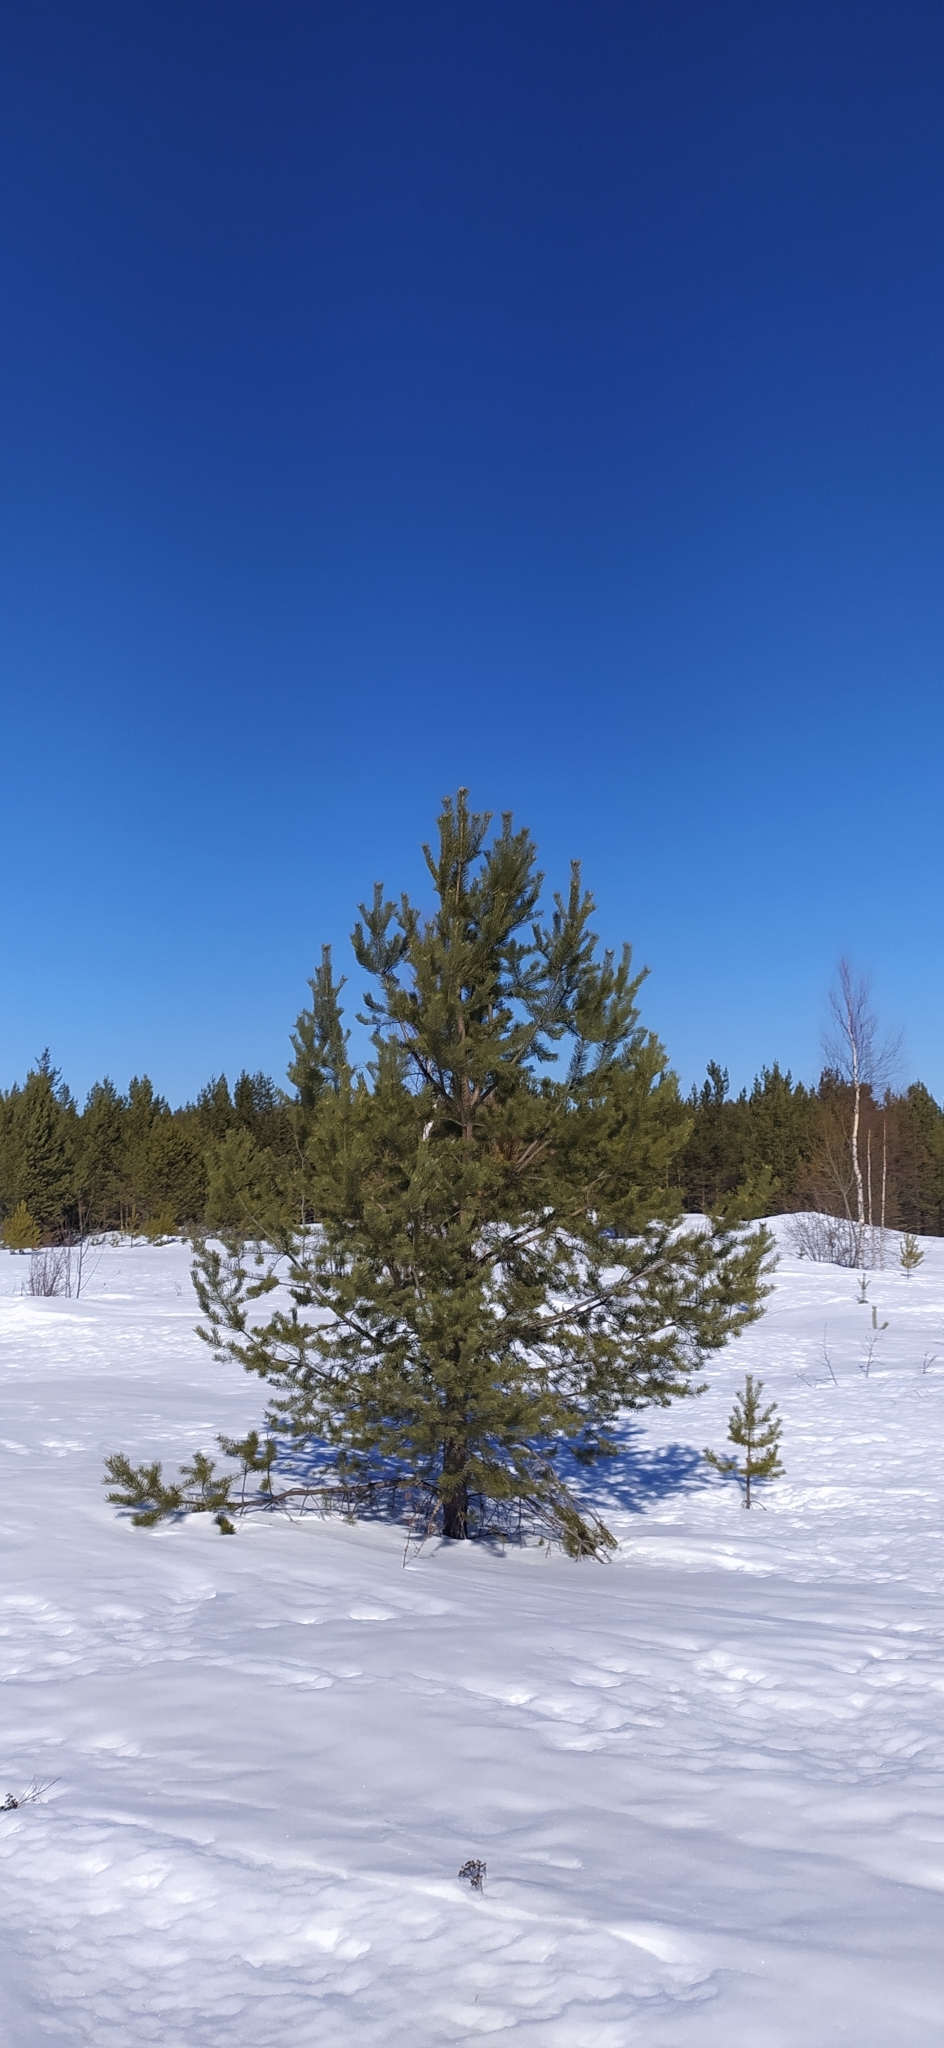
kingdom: Plantae
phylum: Tracheophyta
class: Pinopsida
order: Pinales
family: Pinaceae
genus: Pinus
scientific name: Pinus sylvestris
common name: Scots pine
